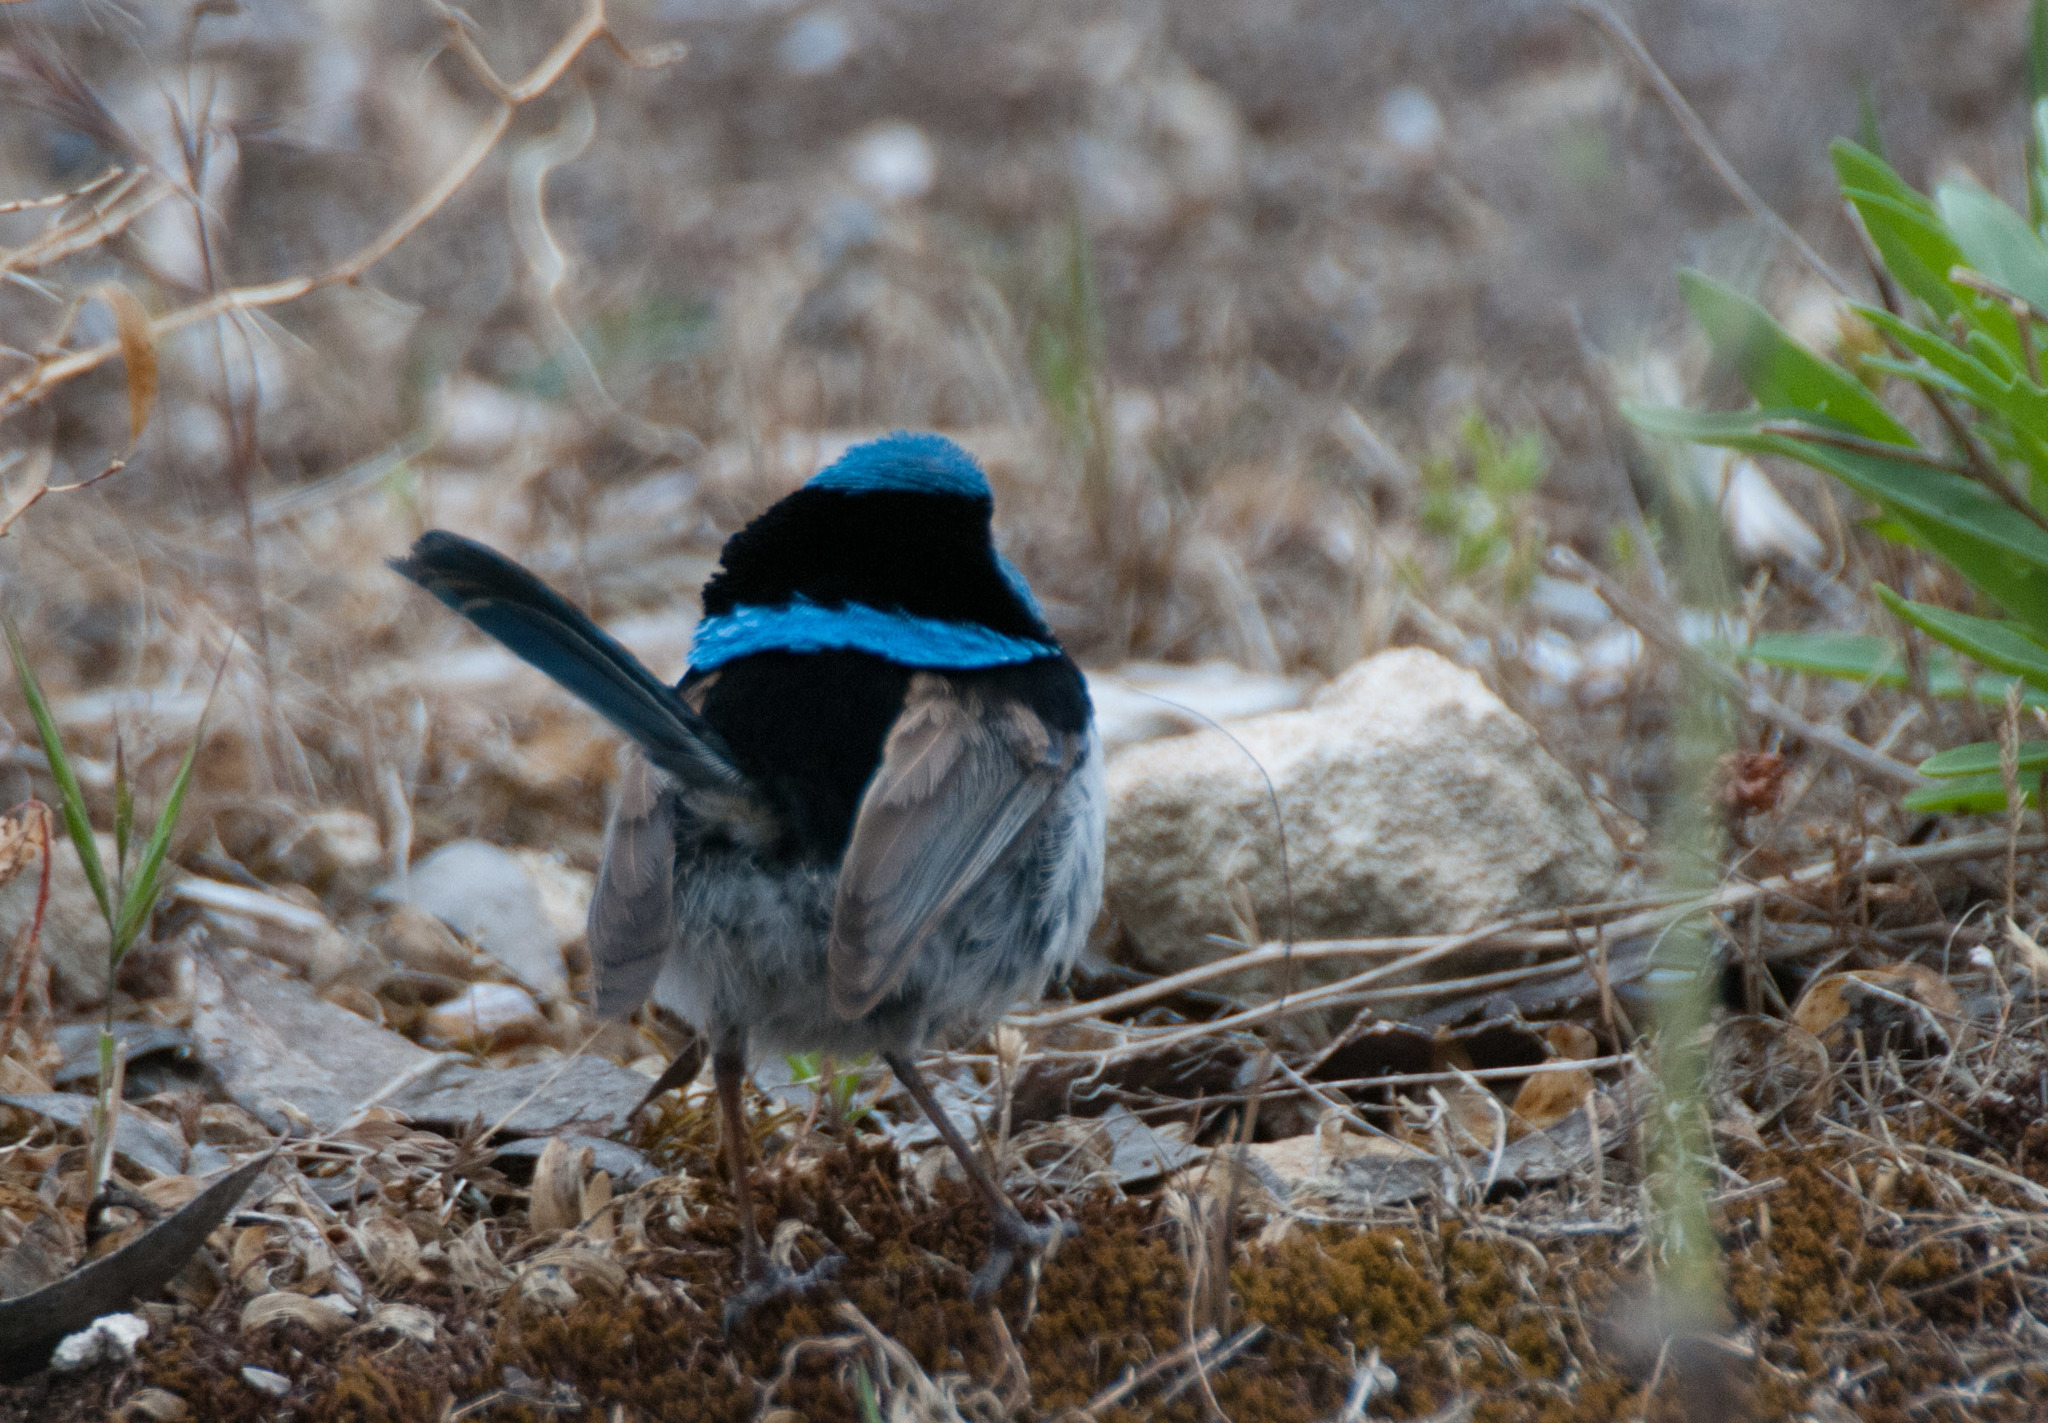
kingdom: Animalia
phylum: Chordata
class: Aves
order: Passeriformes
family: Maluridae
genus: Malurus
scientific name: Malurus cyaneus
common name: Superb fairywren
